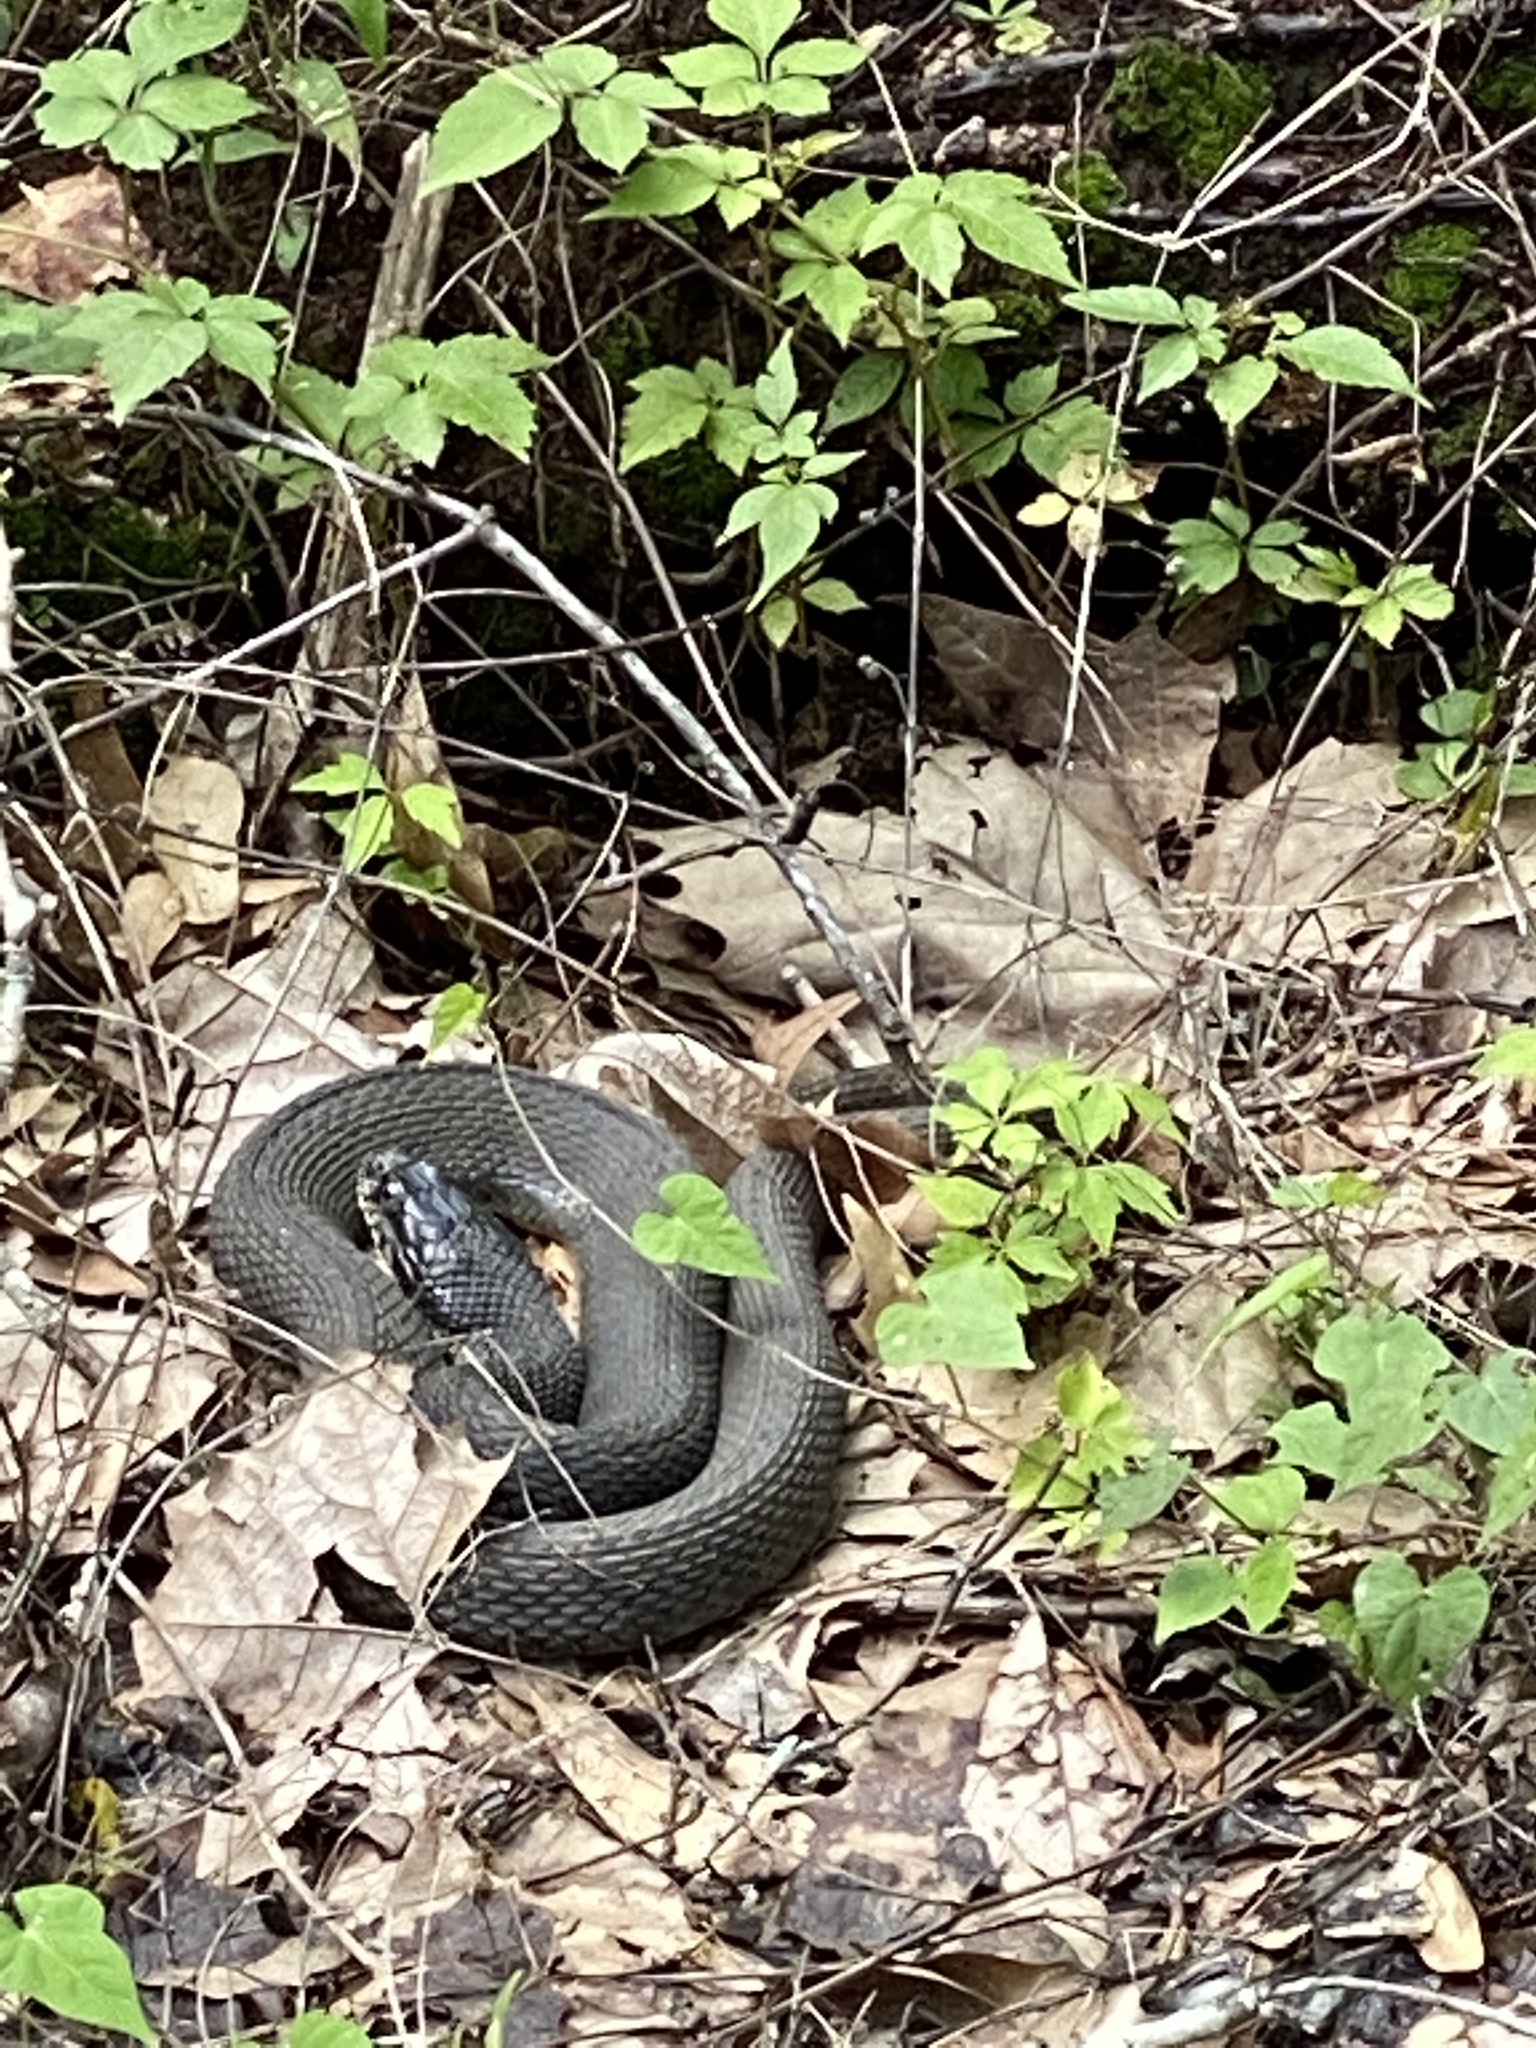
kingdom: Animalia
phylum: Chordata
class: Squamata
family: Colubridae
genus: Nerodia
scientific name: Nerodia erythrogaster
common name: Plainbelly water snake
